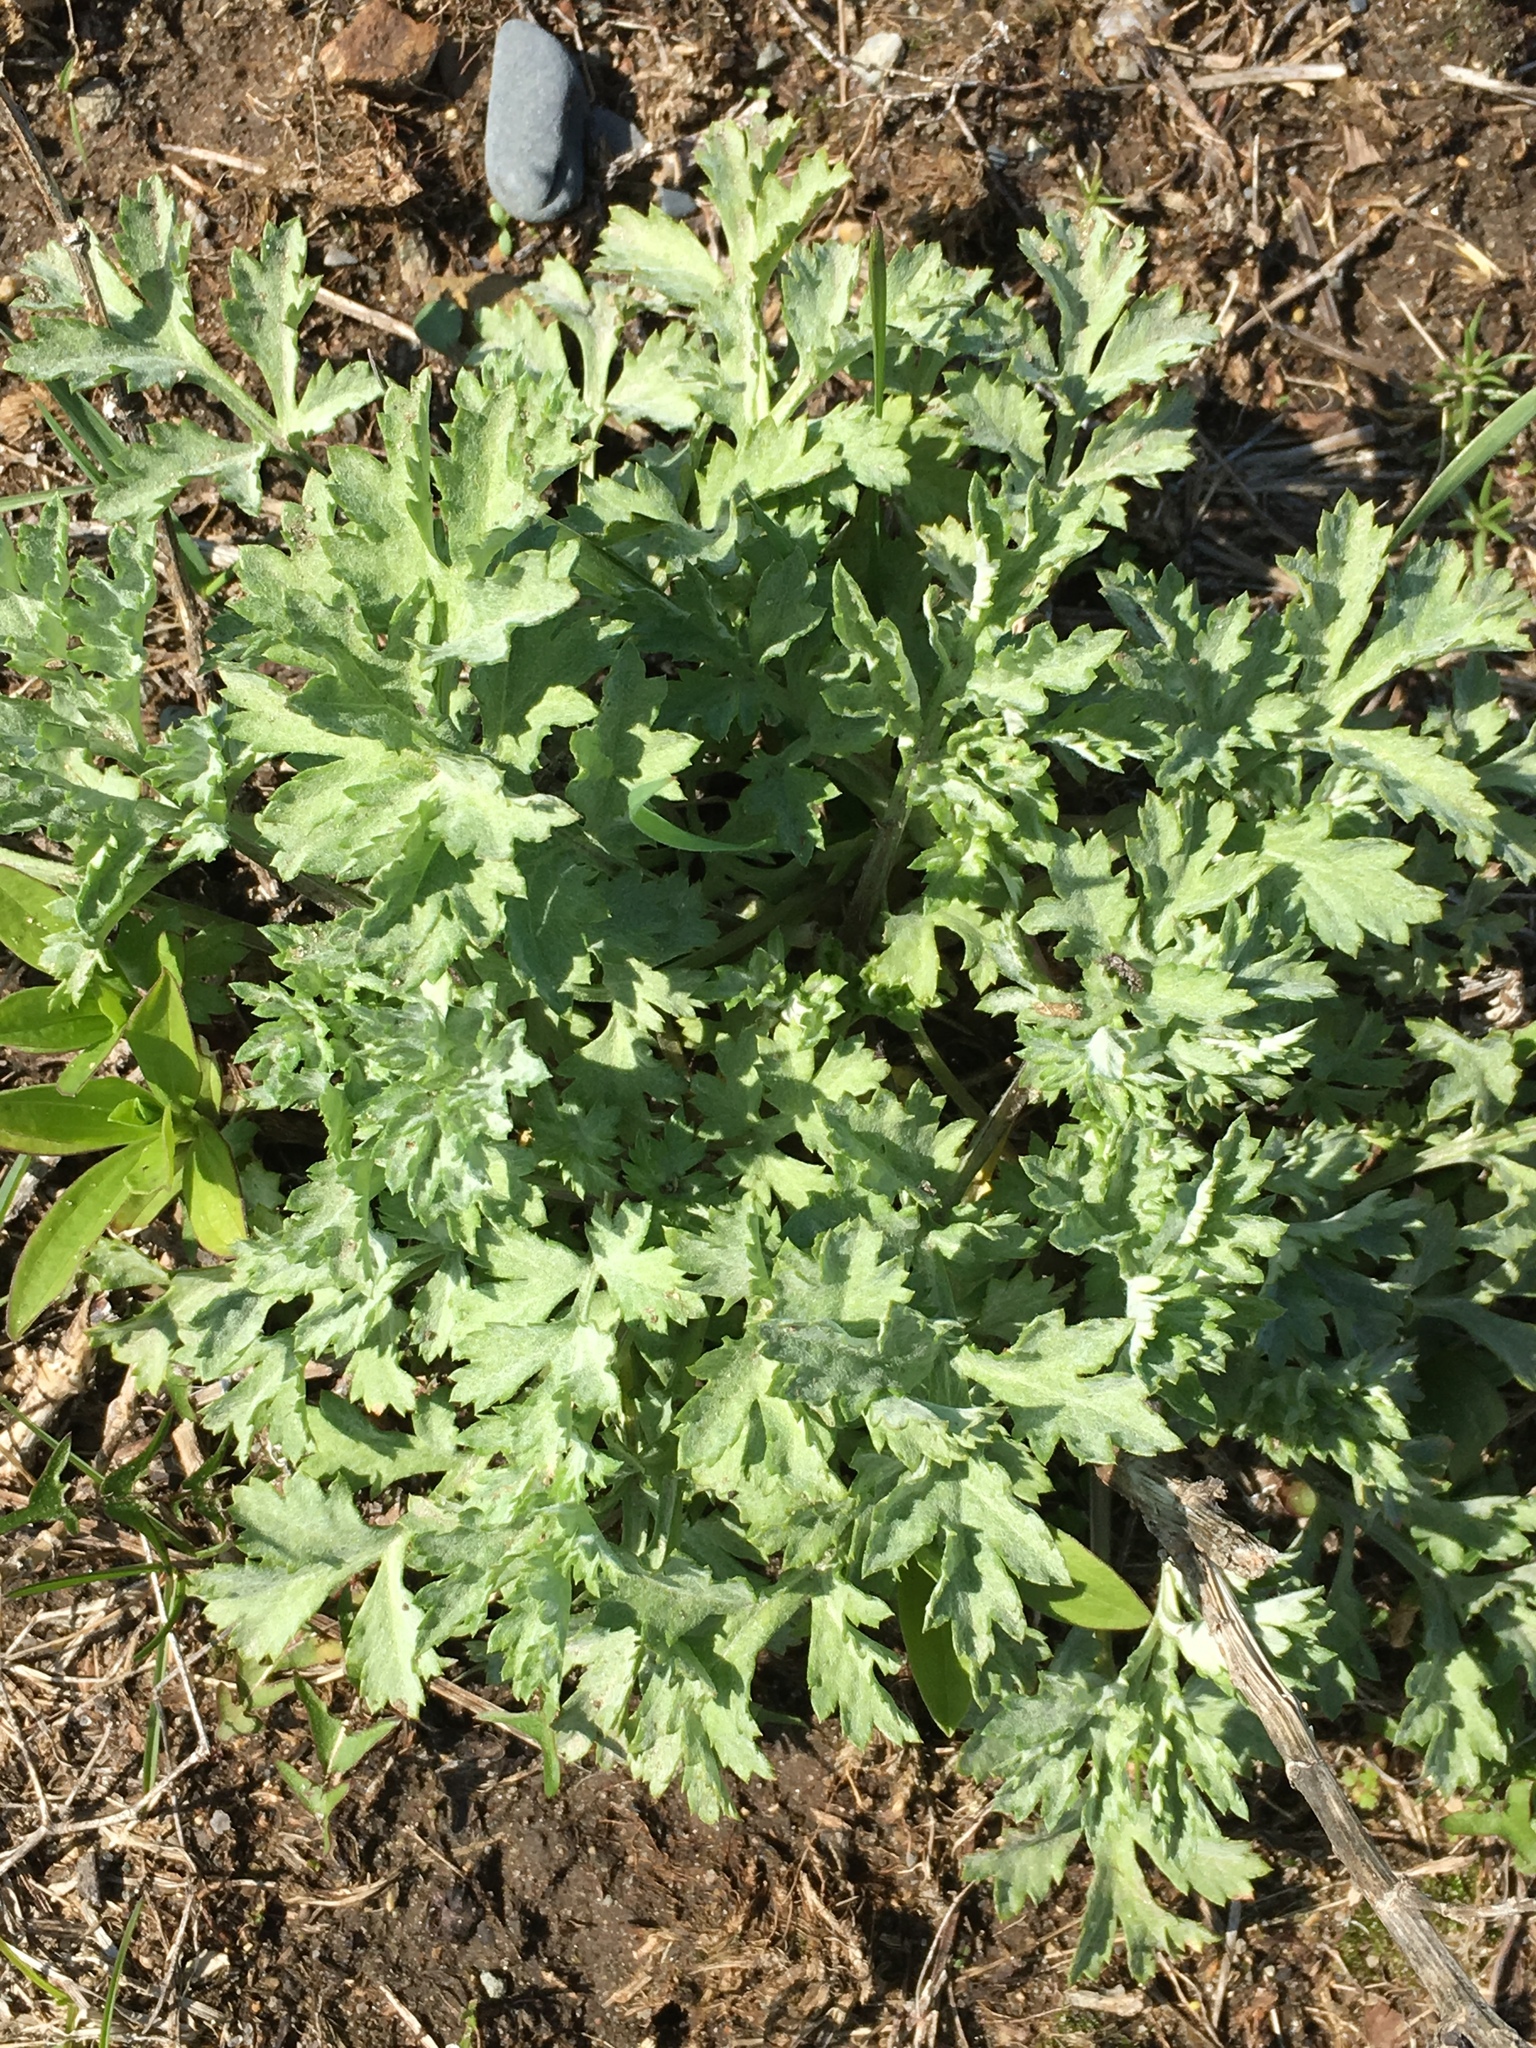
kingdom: Plantae
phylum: Tracheophyta
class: Magnoliopsida
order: Asterales
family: Asteraceae
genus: Artemisia
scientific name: Artemisia vulgaris
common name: Mugwort
